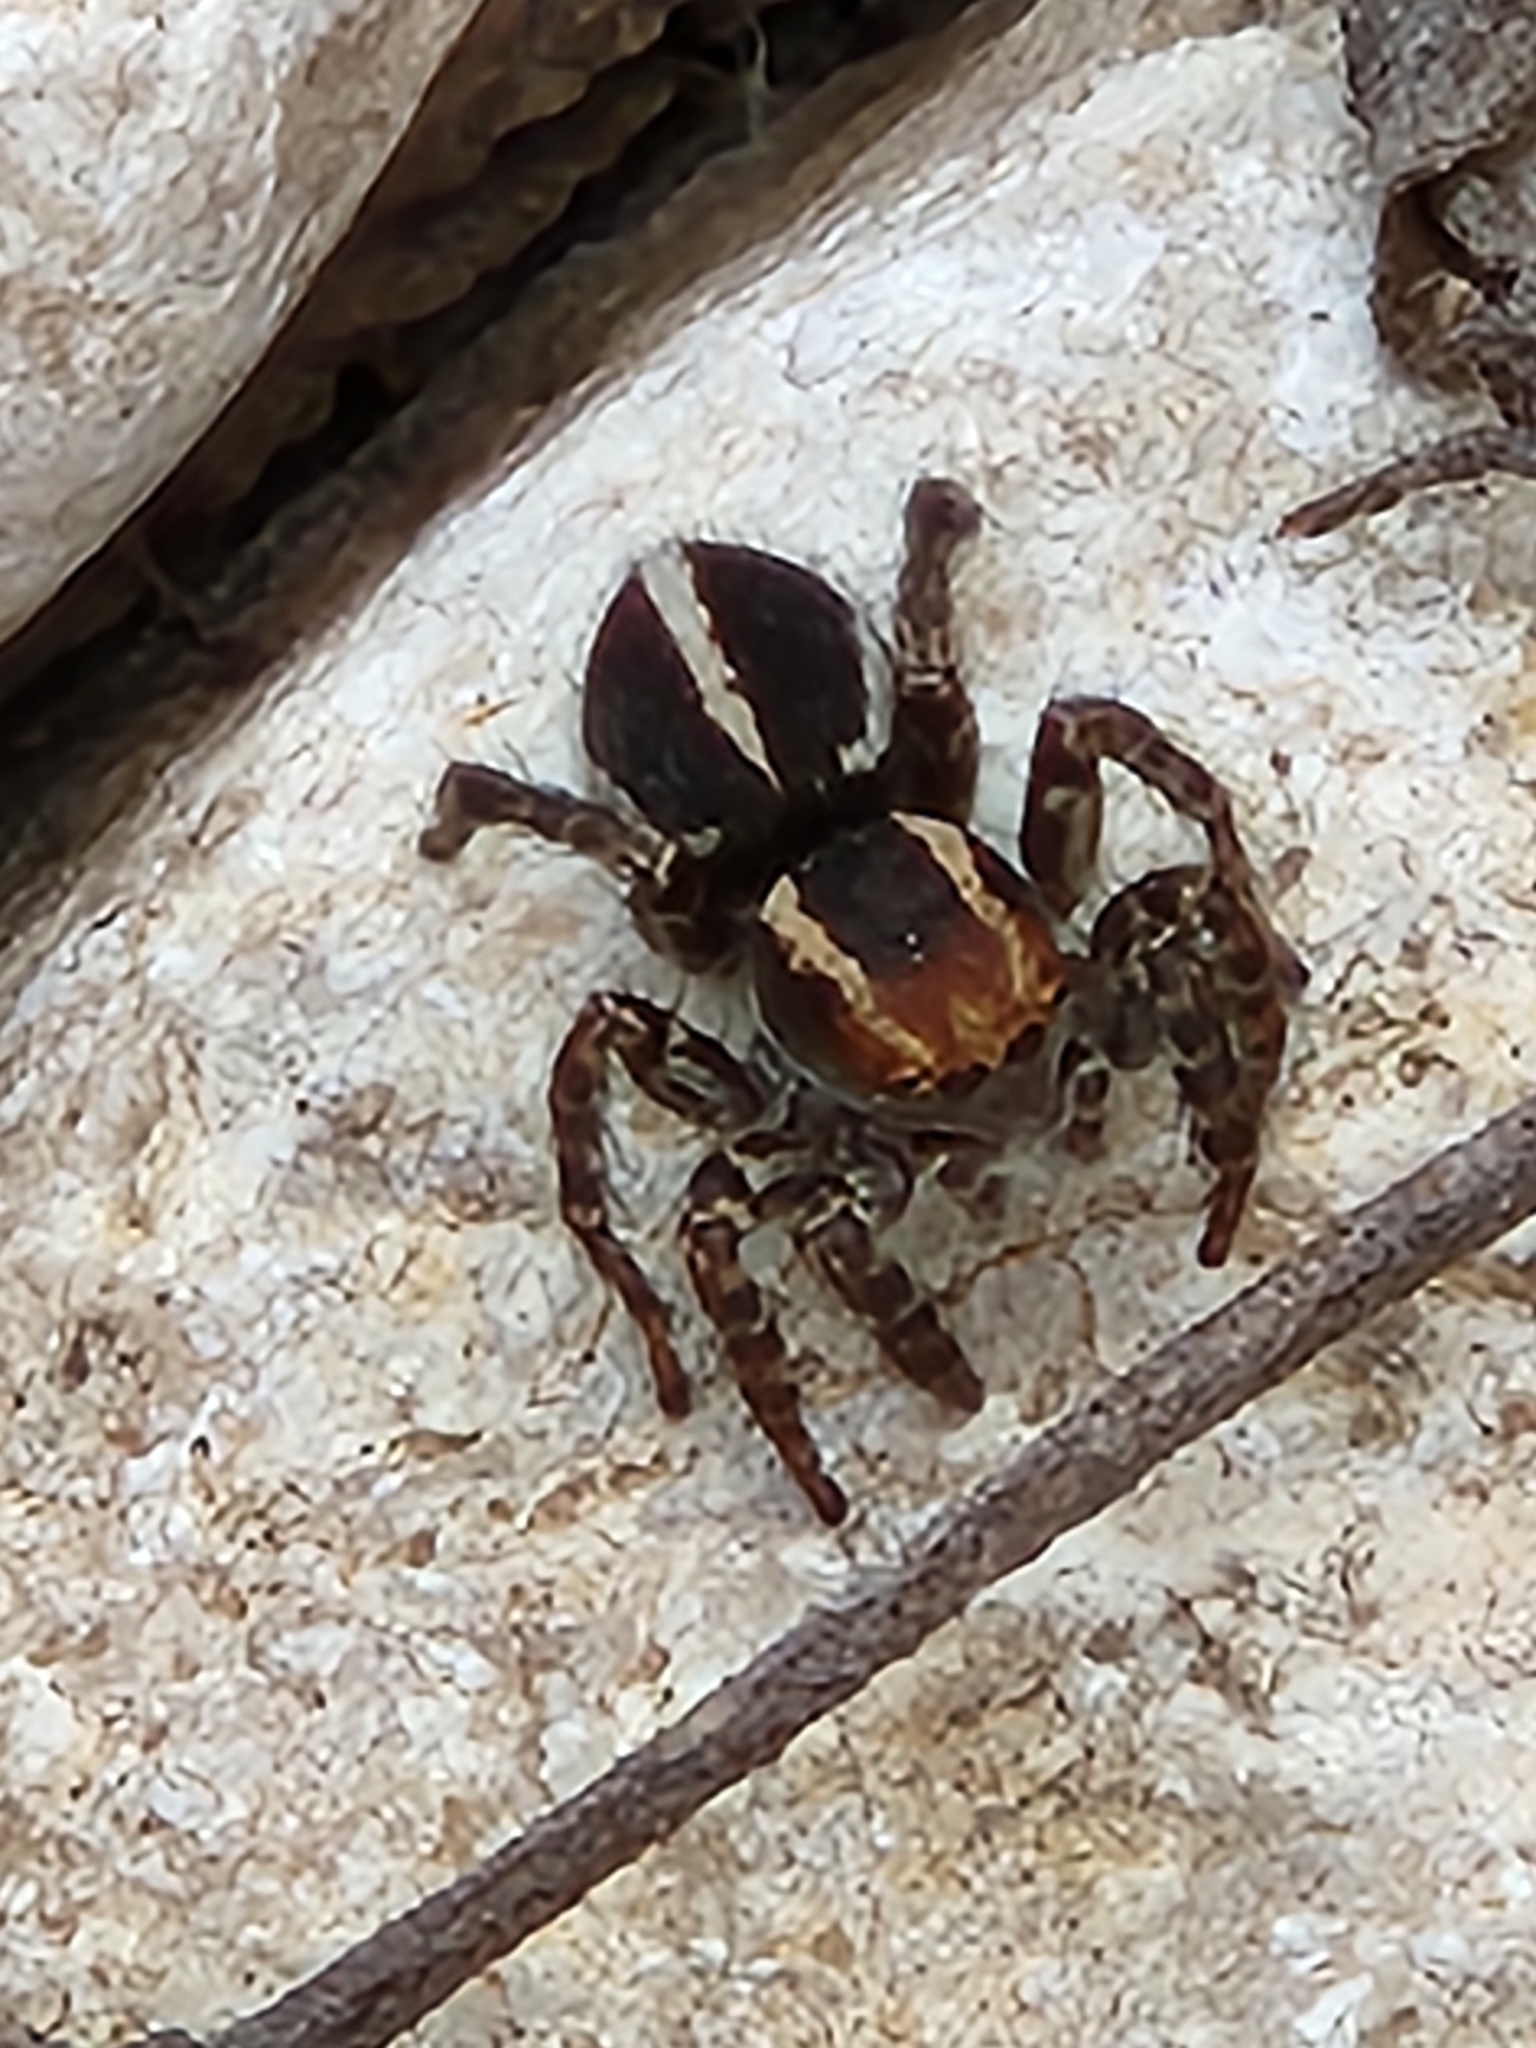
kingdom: Animalia
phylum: Arthropoda
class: Arachnida
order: Araneae
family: Salticidae
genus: Phlegra
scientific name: Phlegra hentzi
